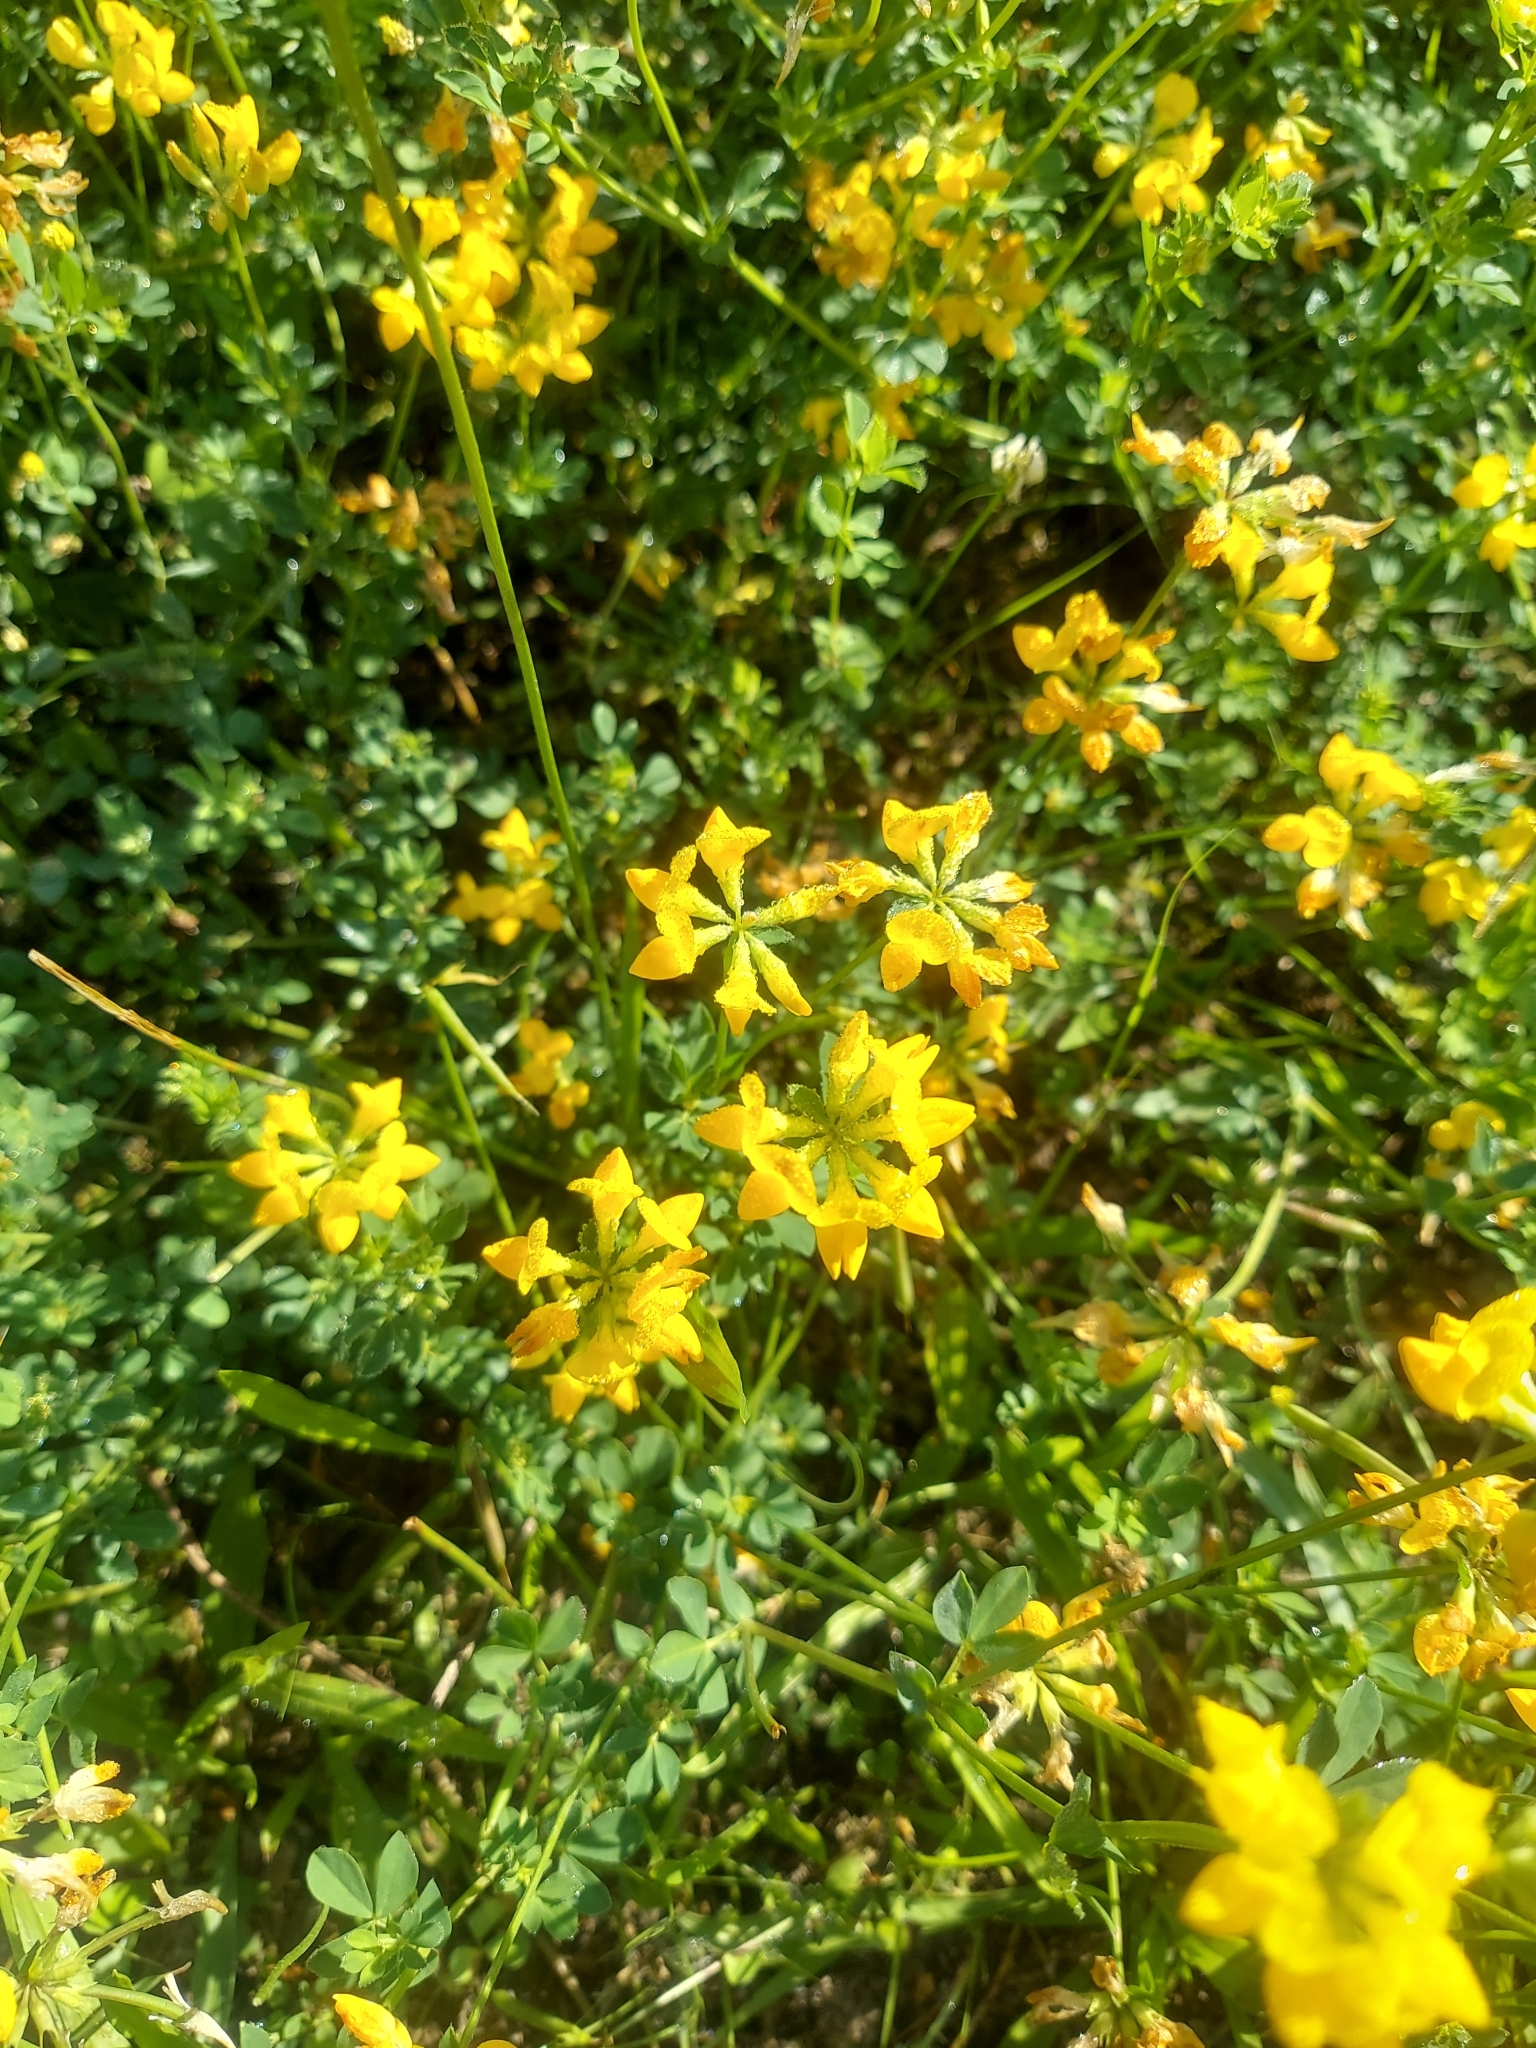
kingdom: Plantae
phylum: Tracheophyta
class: Magnoliopsida
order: Fabales
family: Fabaceae
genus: Lotus
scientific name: Lotus corniculatus
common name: Common bird's-foot-trefoil
